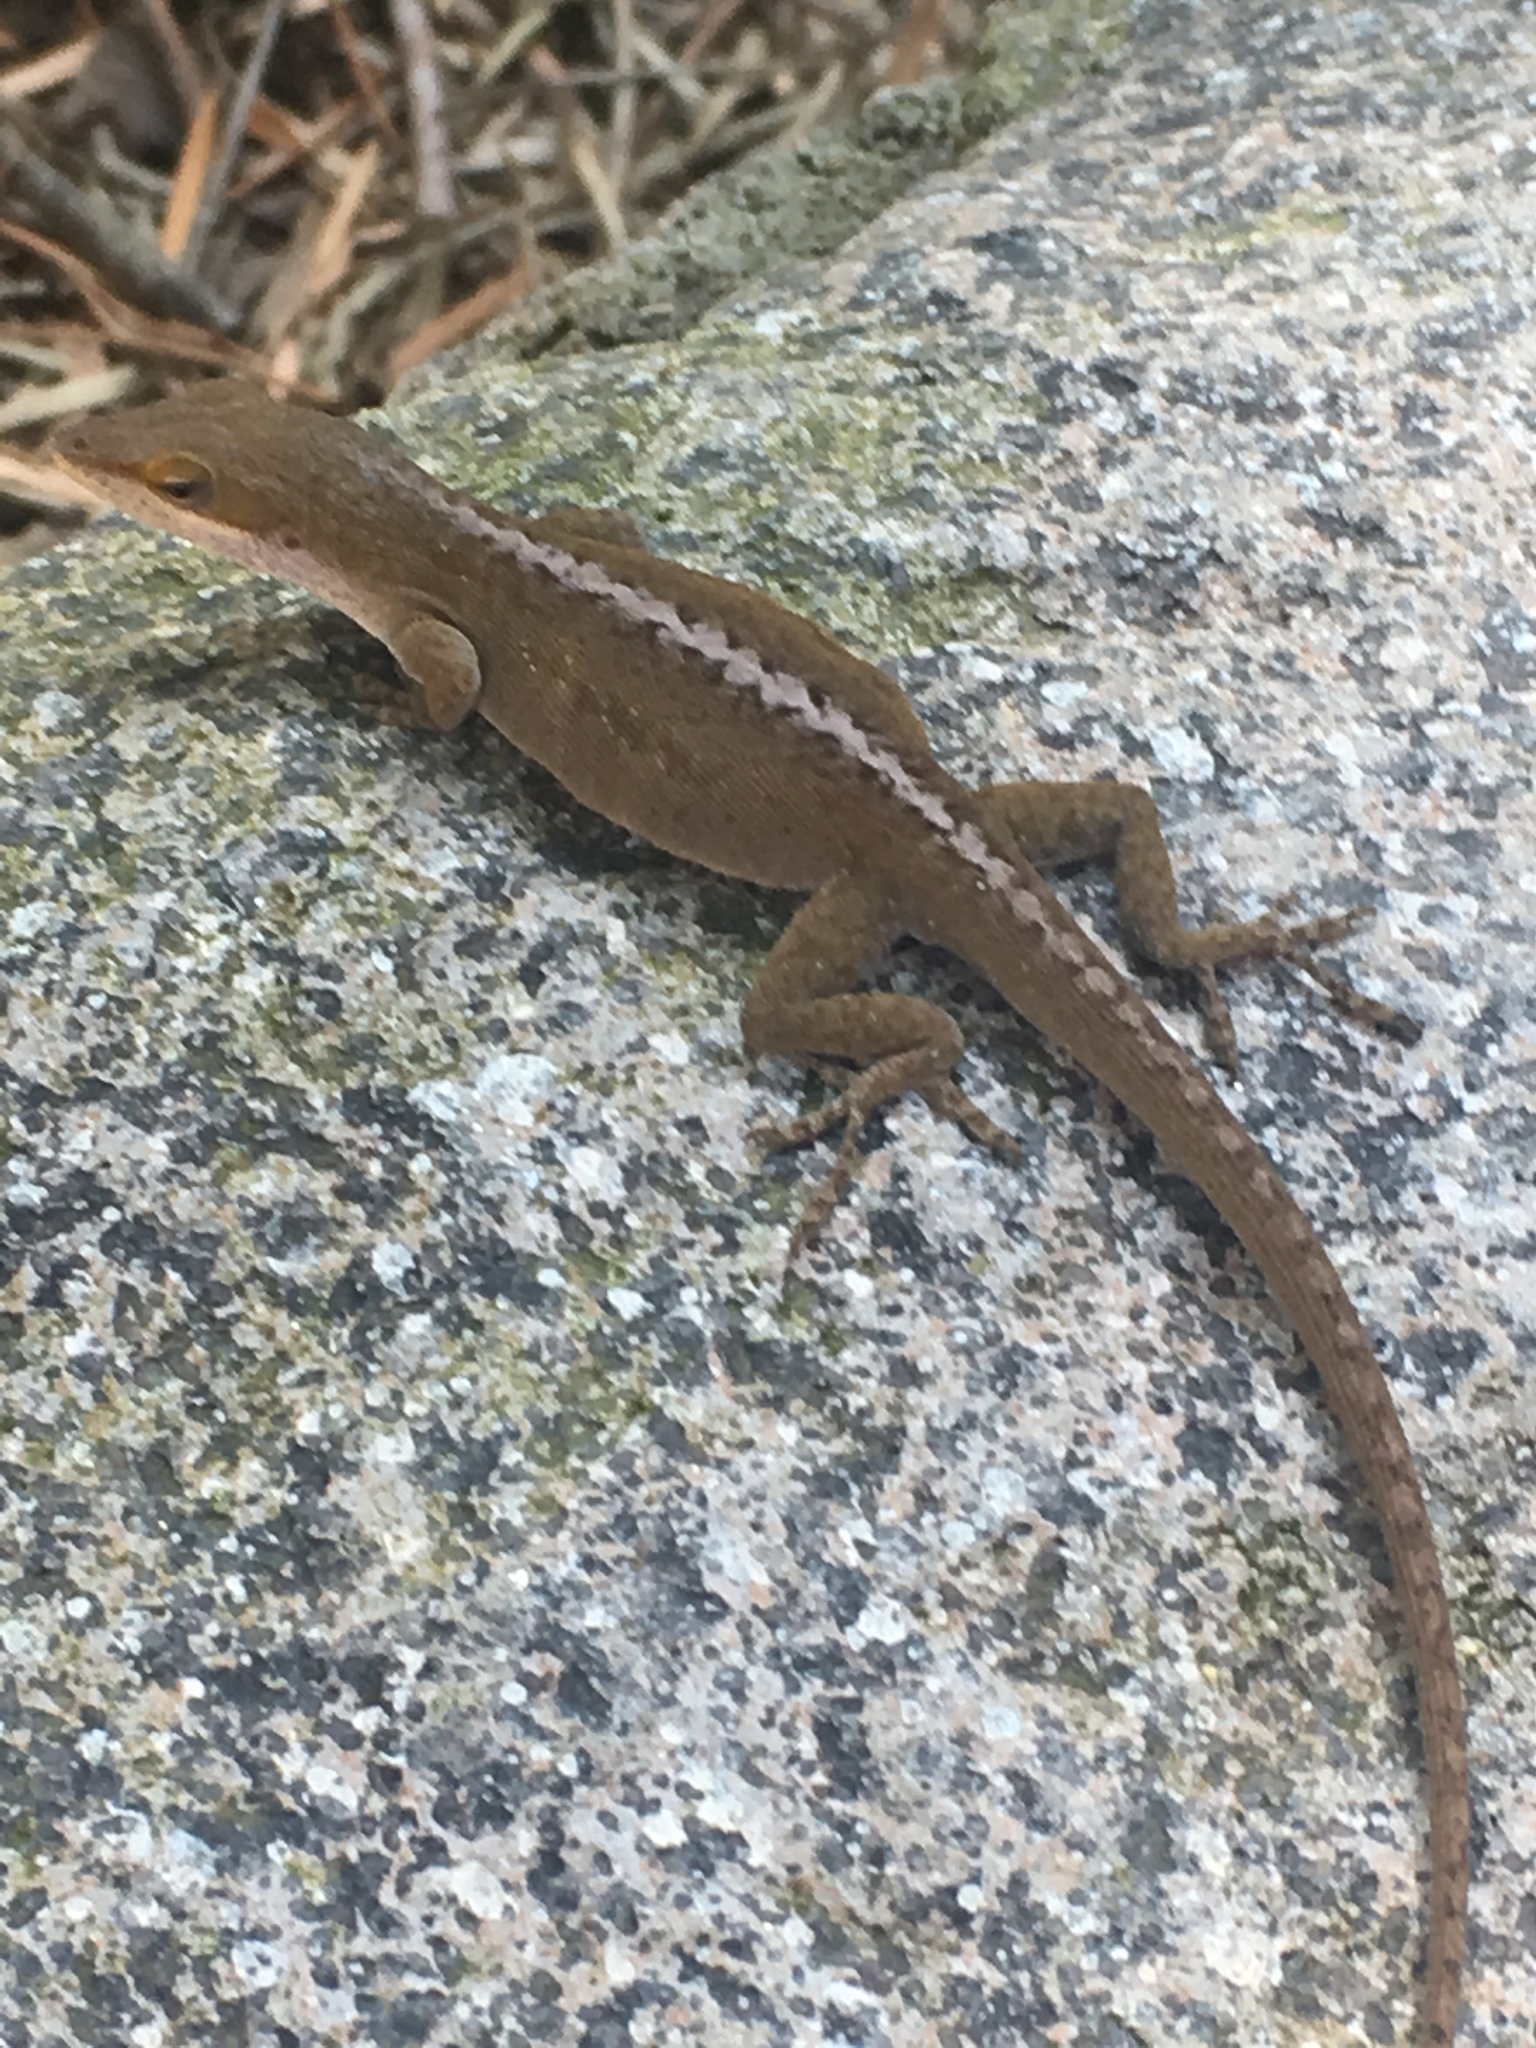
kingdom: Animalia
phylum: Chordata
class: Squamata
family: Dactyloidae
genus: Anolis
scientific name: Anolis carolinensis
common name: Green anole
